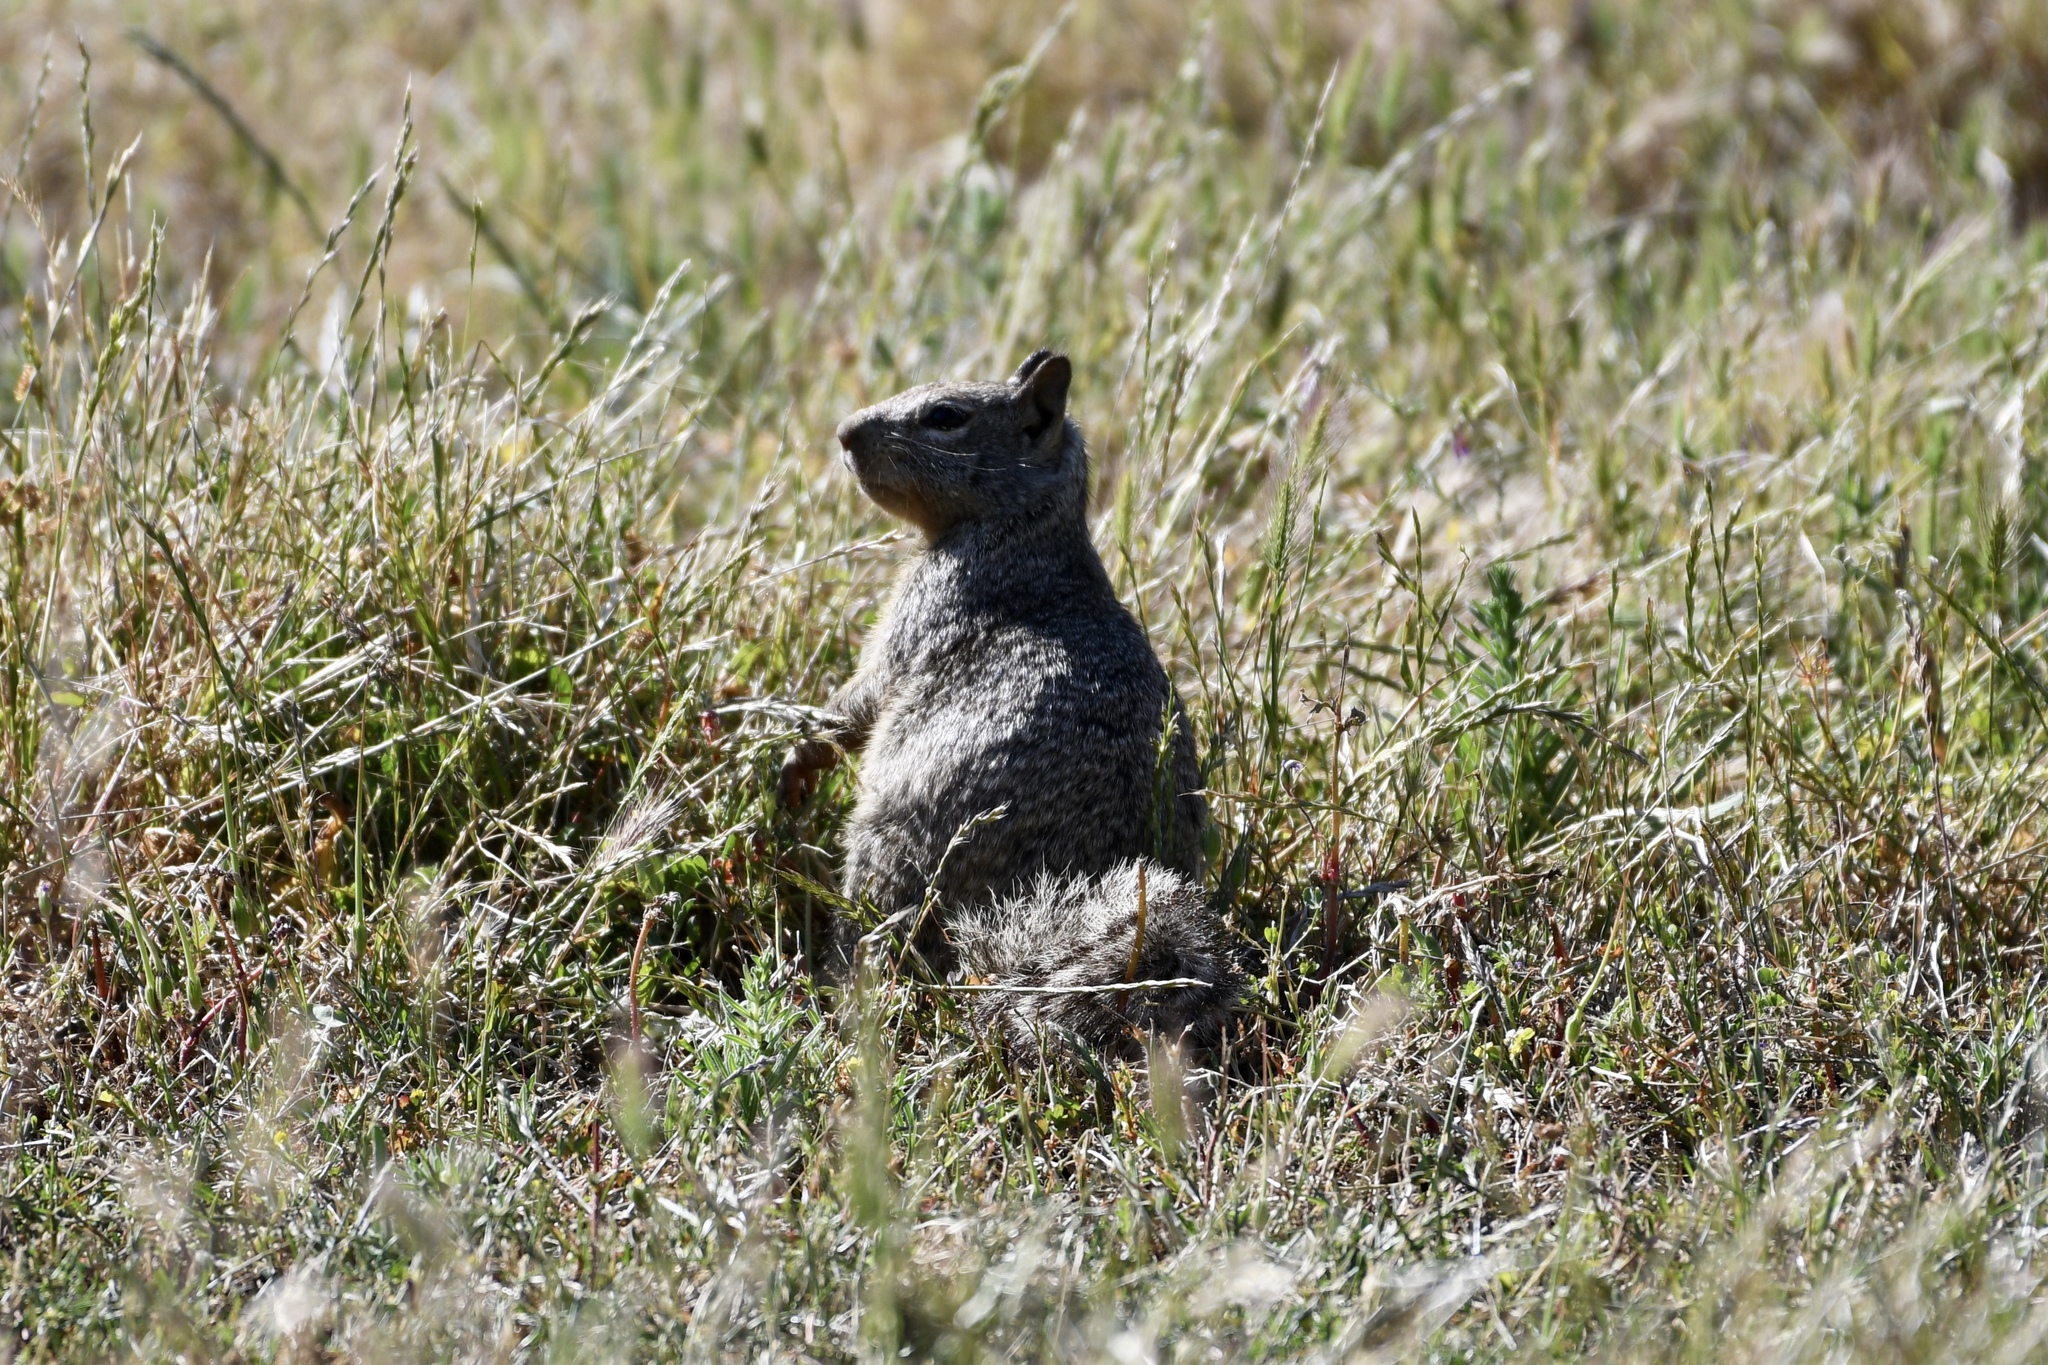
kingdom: Animalia
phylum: Chordata
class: Mammalia
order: Rodentia
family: Sciuridae
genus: Otospermophilus
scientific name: Otospermophilus beecheyi
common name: California ground squirrel
